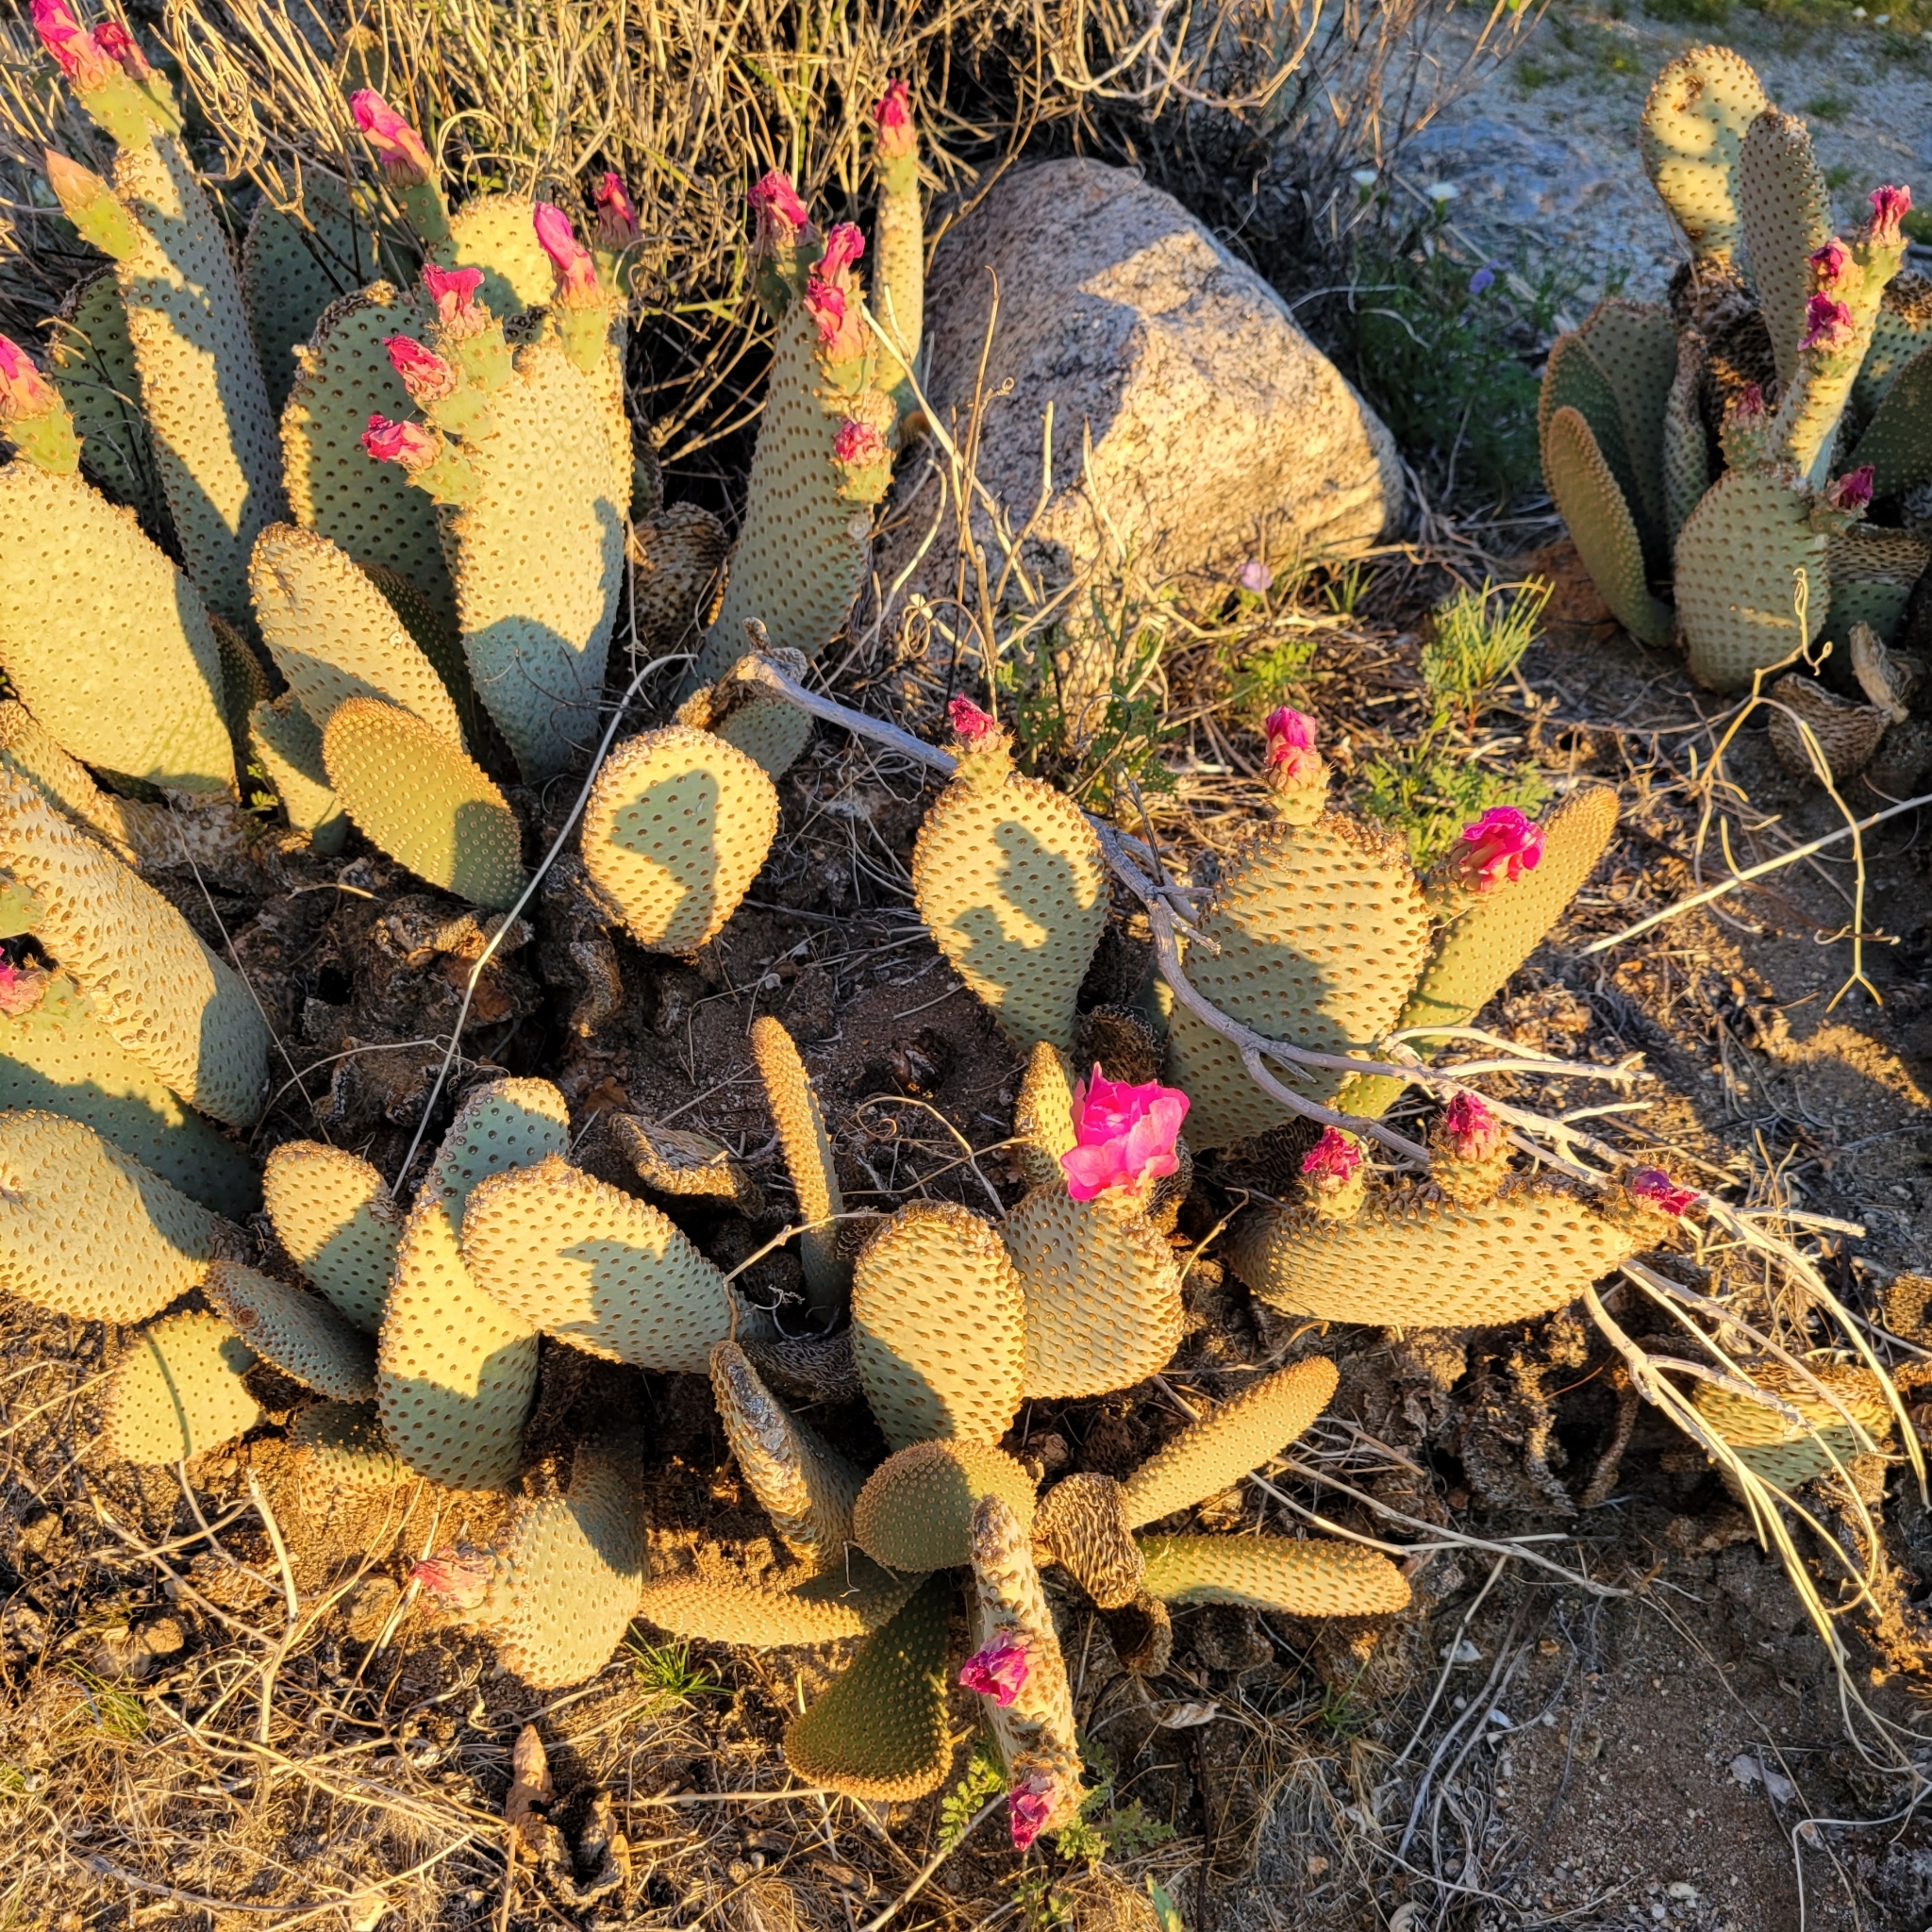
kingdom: Plantae
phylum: Tracheophyta
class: Magnoliopsida
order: Caryophyllales
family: Cactaceae
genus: Opuntia
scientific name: Opuntia basilaris
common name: Beavertail prickly-pear
